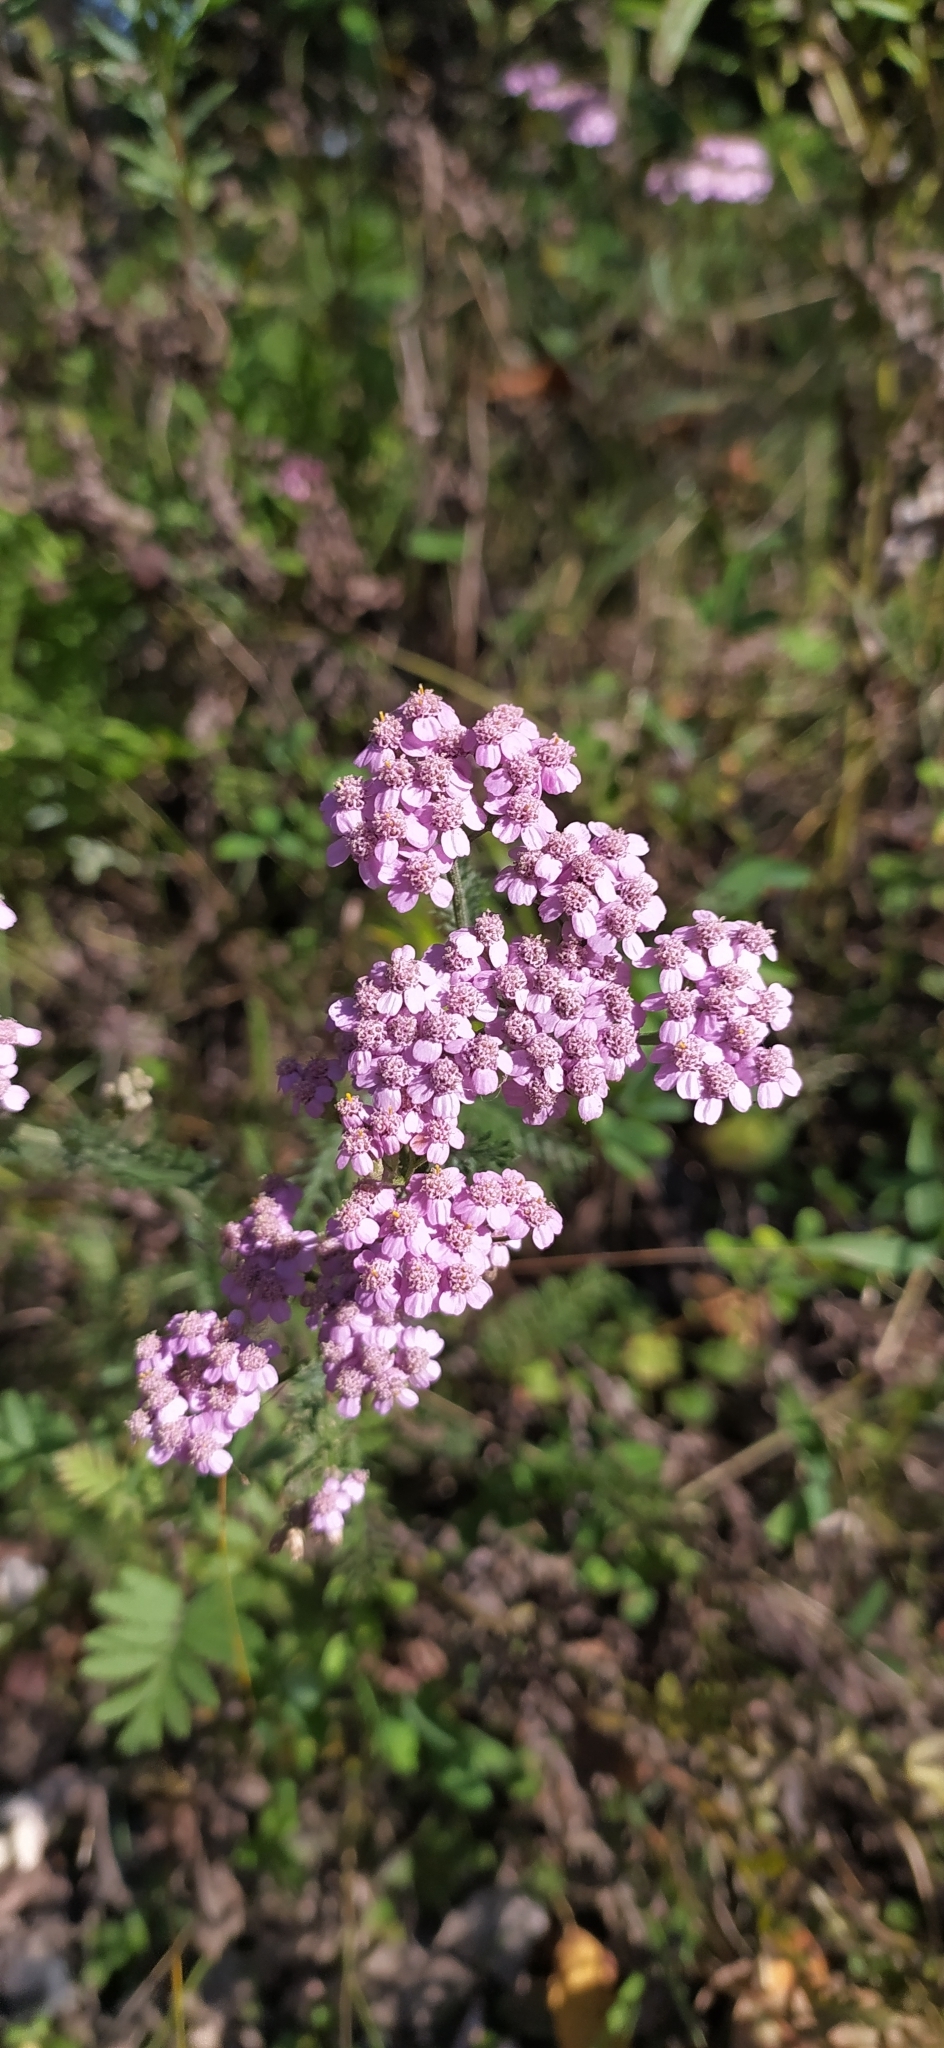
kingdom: Plantae
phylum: Tracheophyta
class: Magnoliopsida
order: Asterales
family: Asteraceae
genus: Achillea
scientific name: Achillea asiatica
